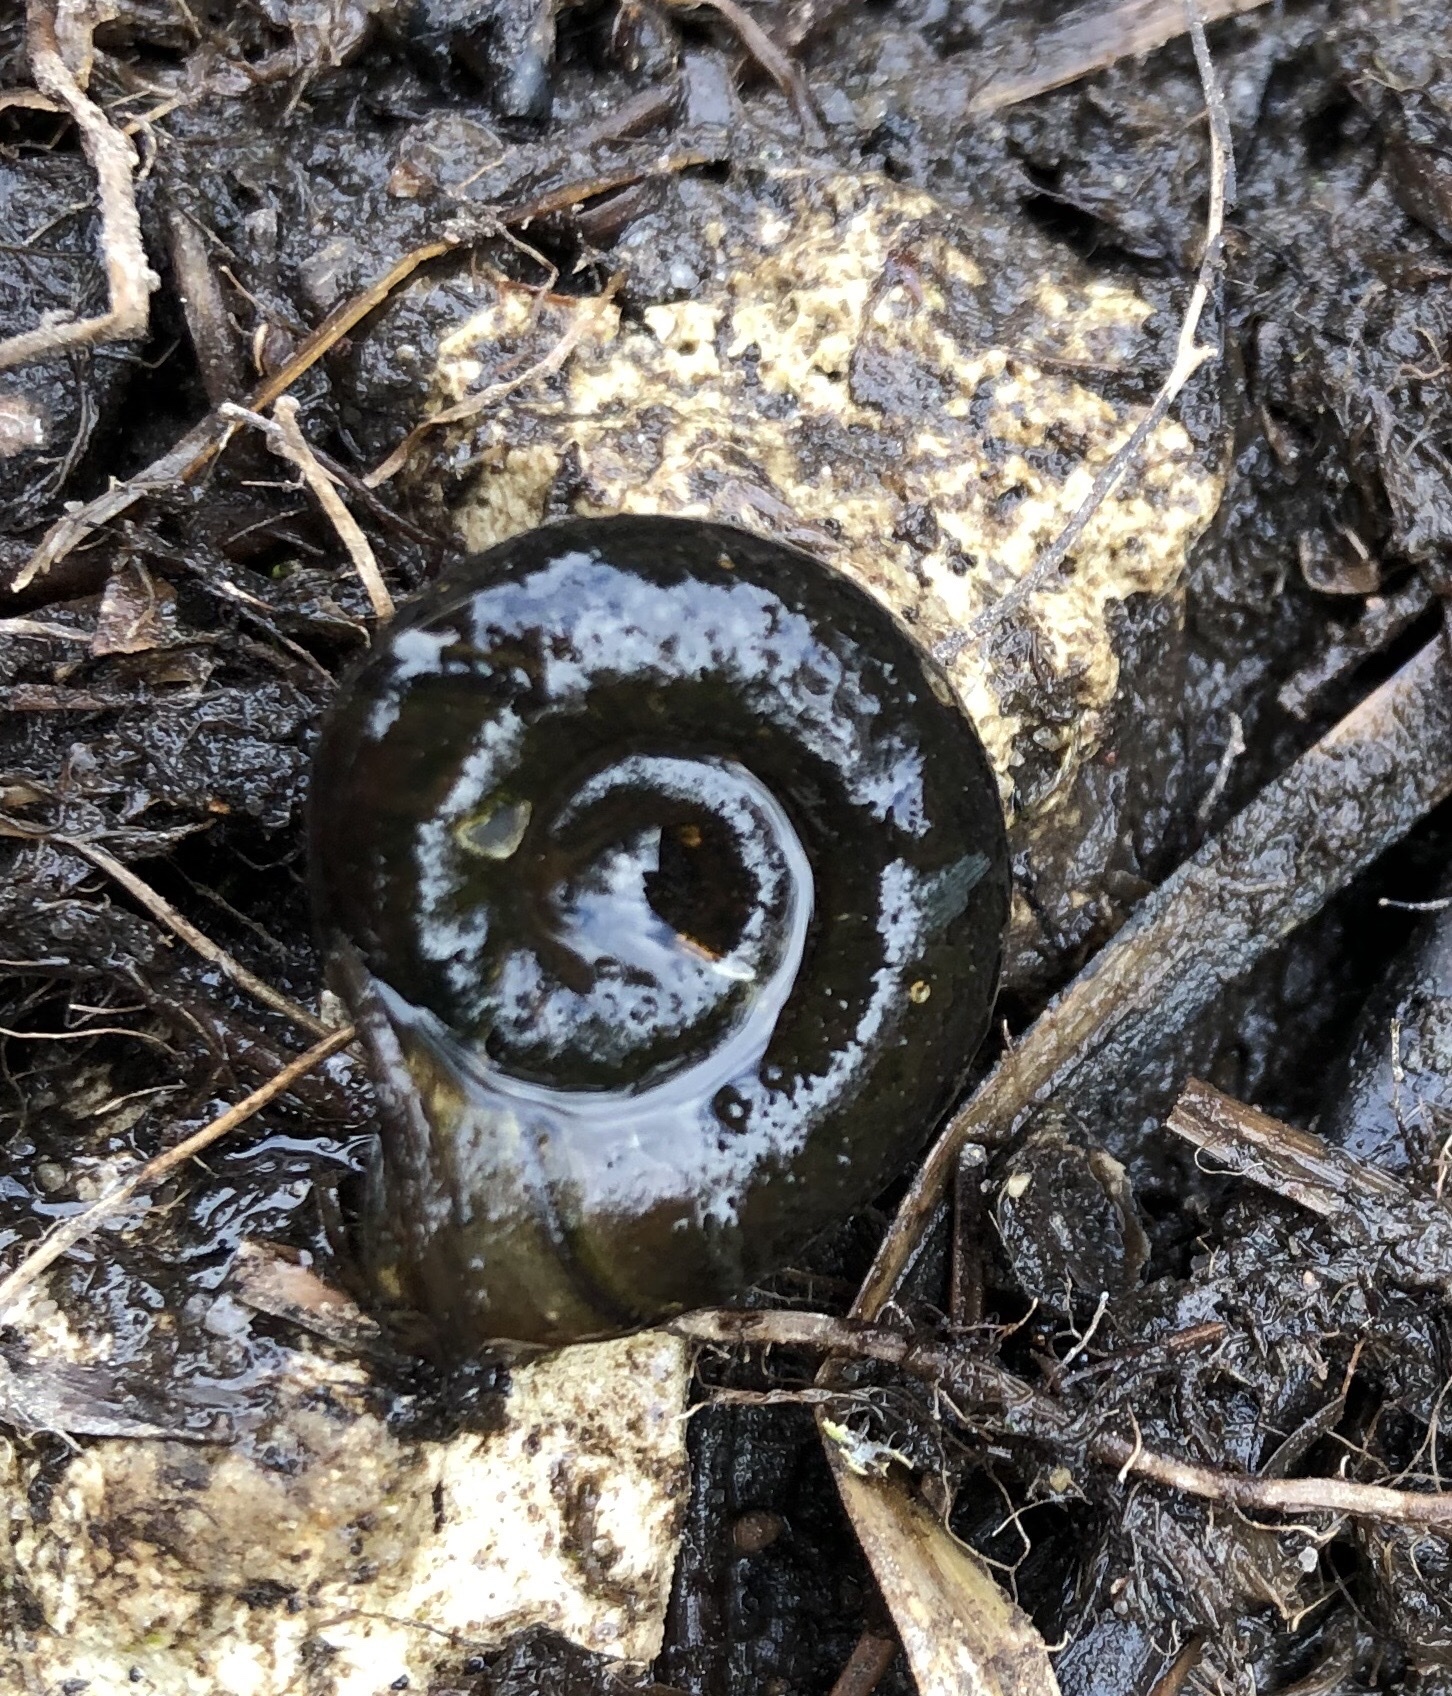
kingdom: Animalia
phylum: Mollusca
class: Gastropoda
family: Planorbidae
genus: Planorbarius
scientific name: Planorbarius corneus
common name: Great ramshorn
